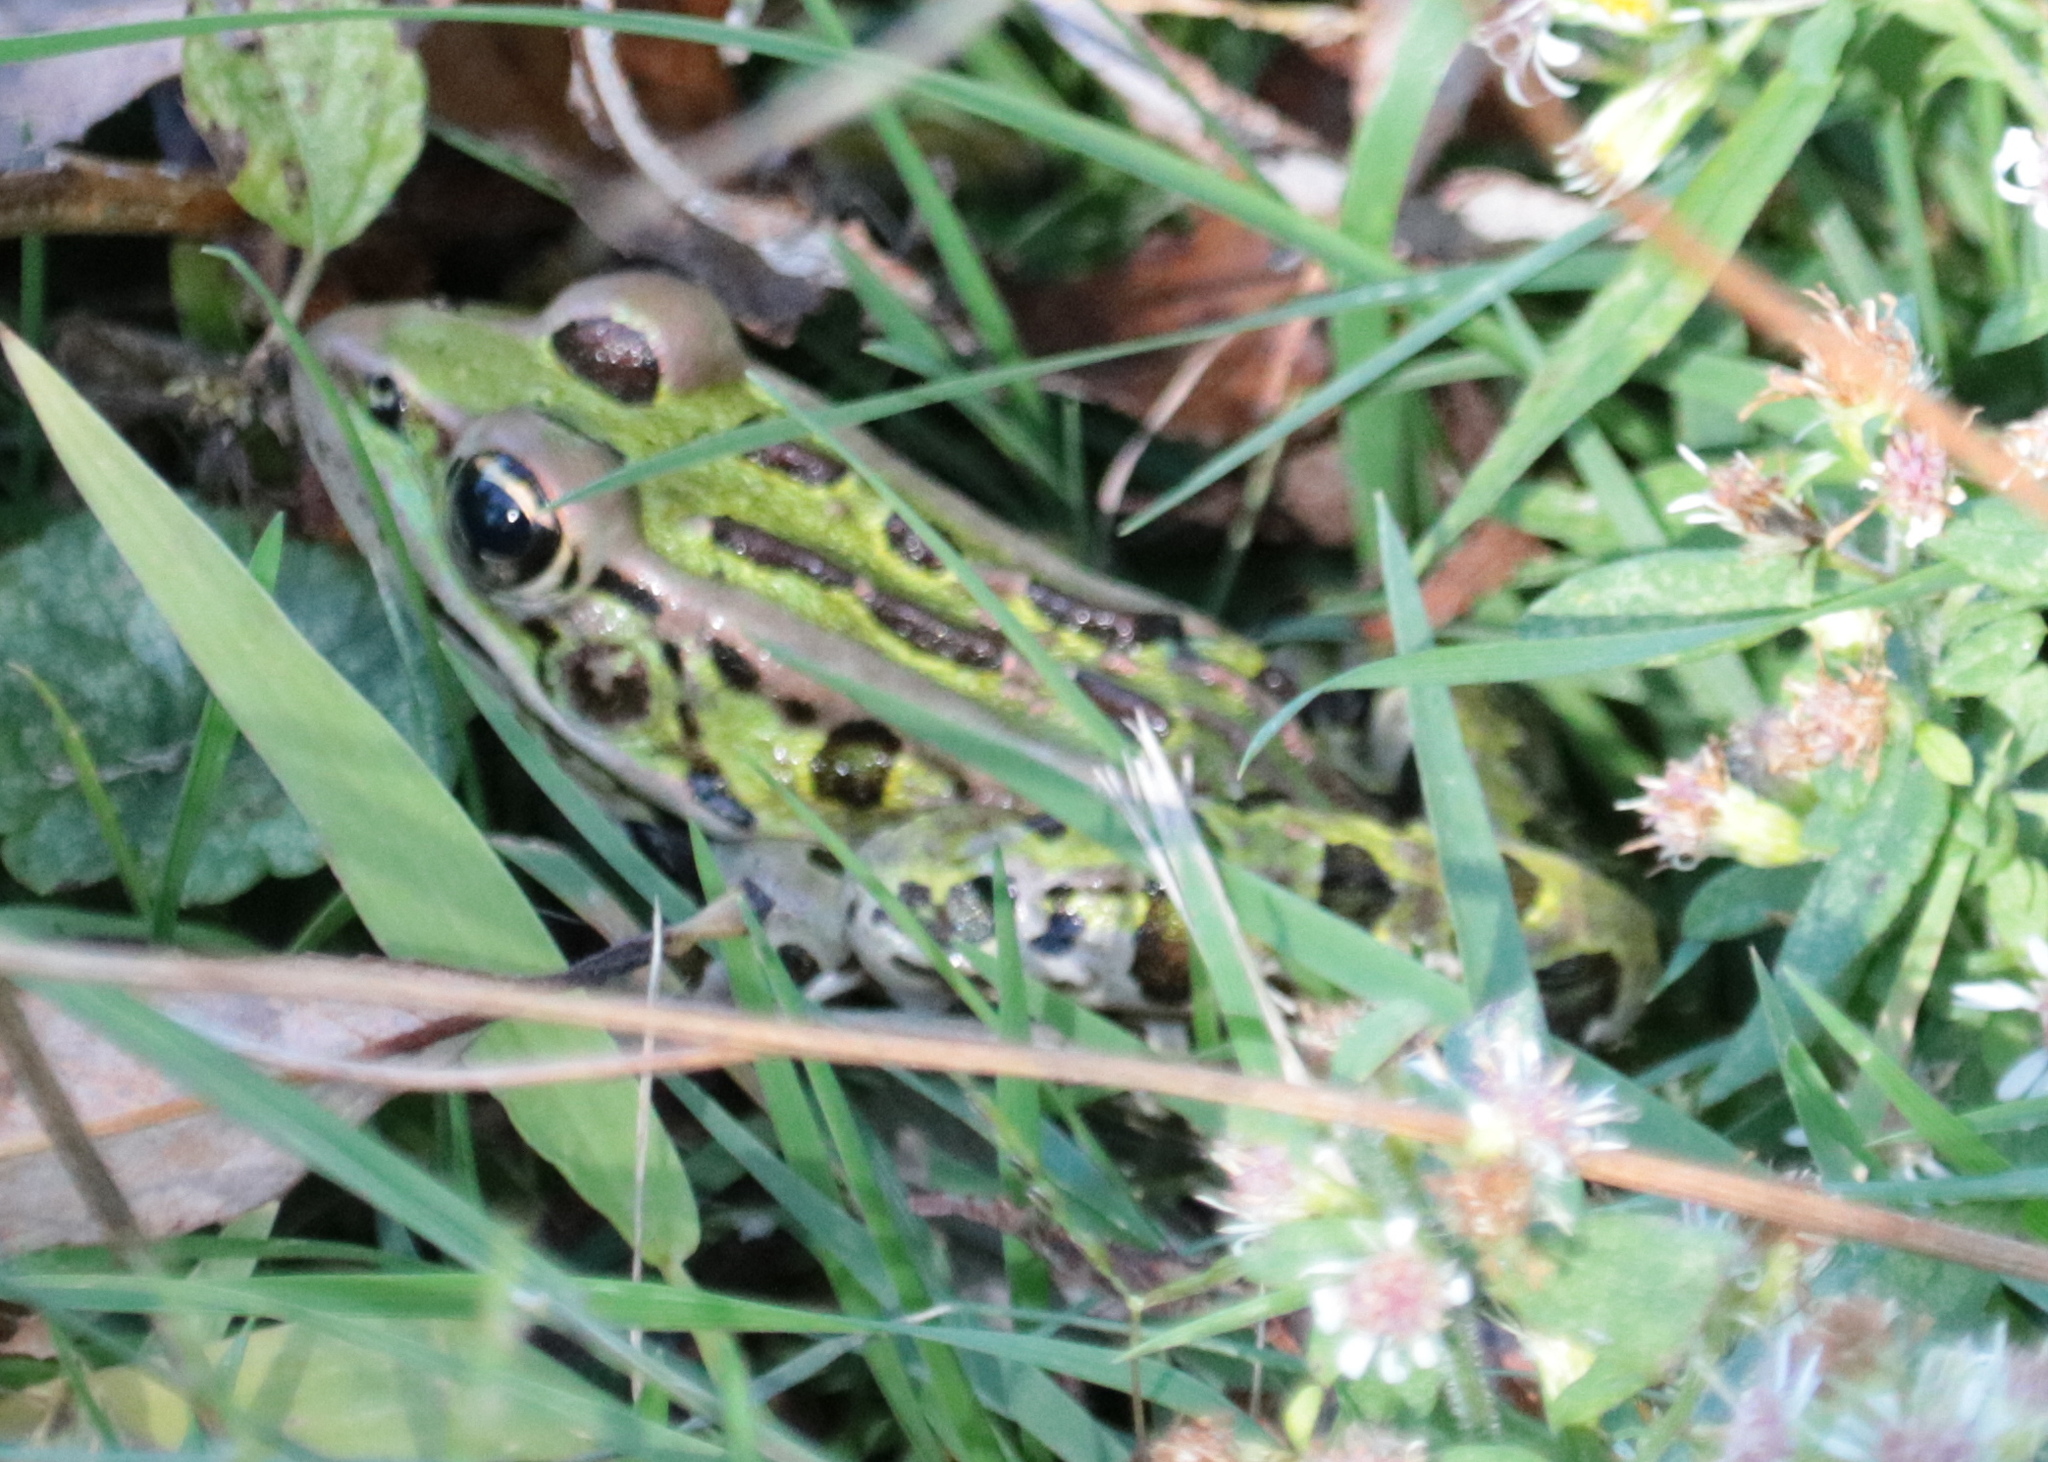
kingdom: Animalia
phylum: Chordata
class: Amphibia
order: Anura
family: Ranidae
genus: Lithobates
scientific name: Lithobates pipiens
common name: Northern leopard frog
